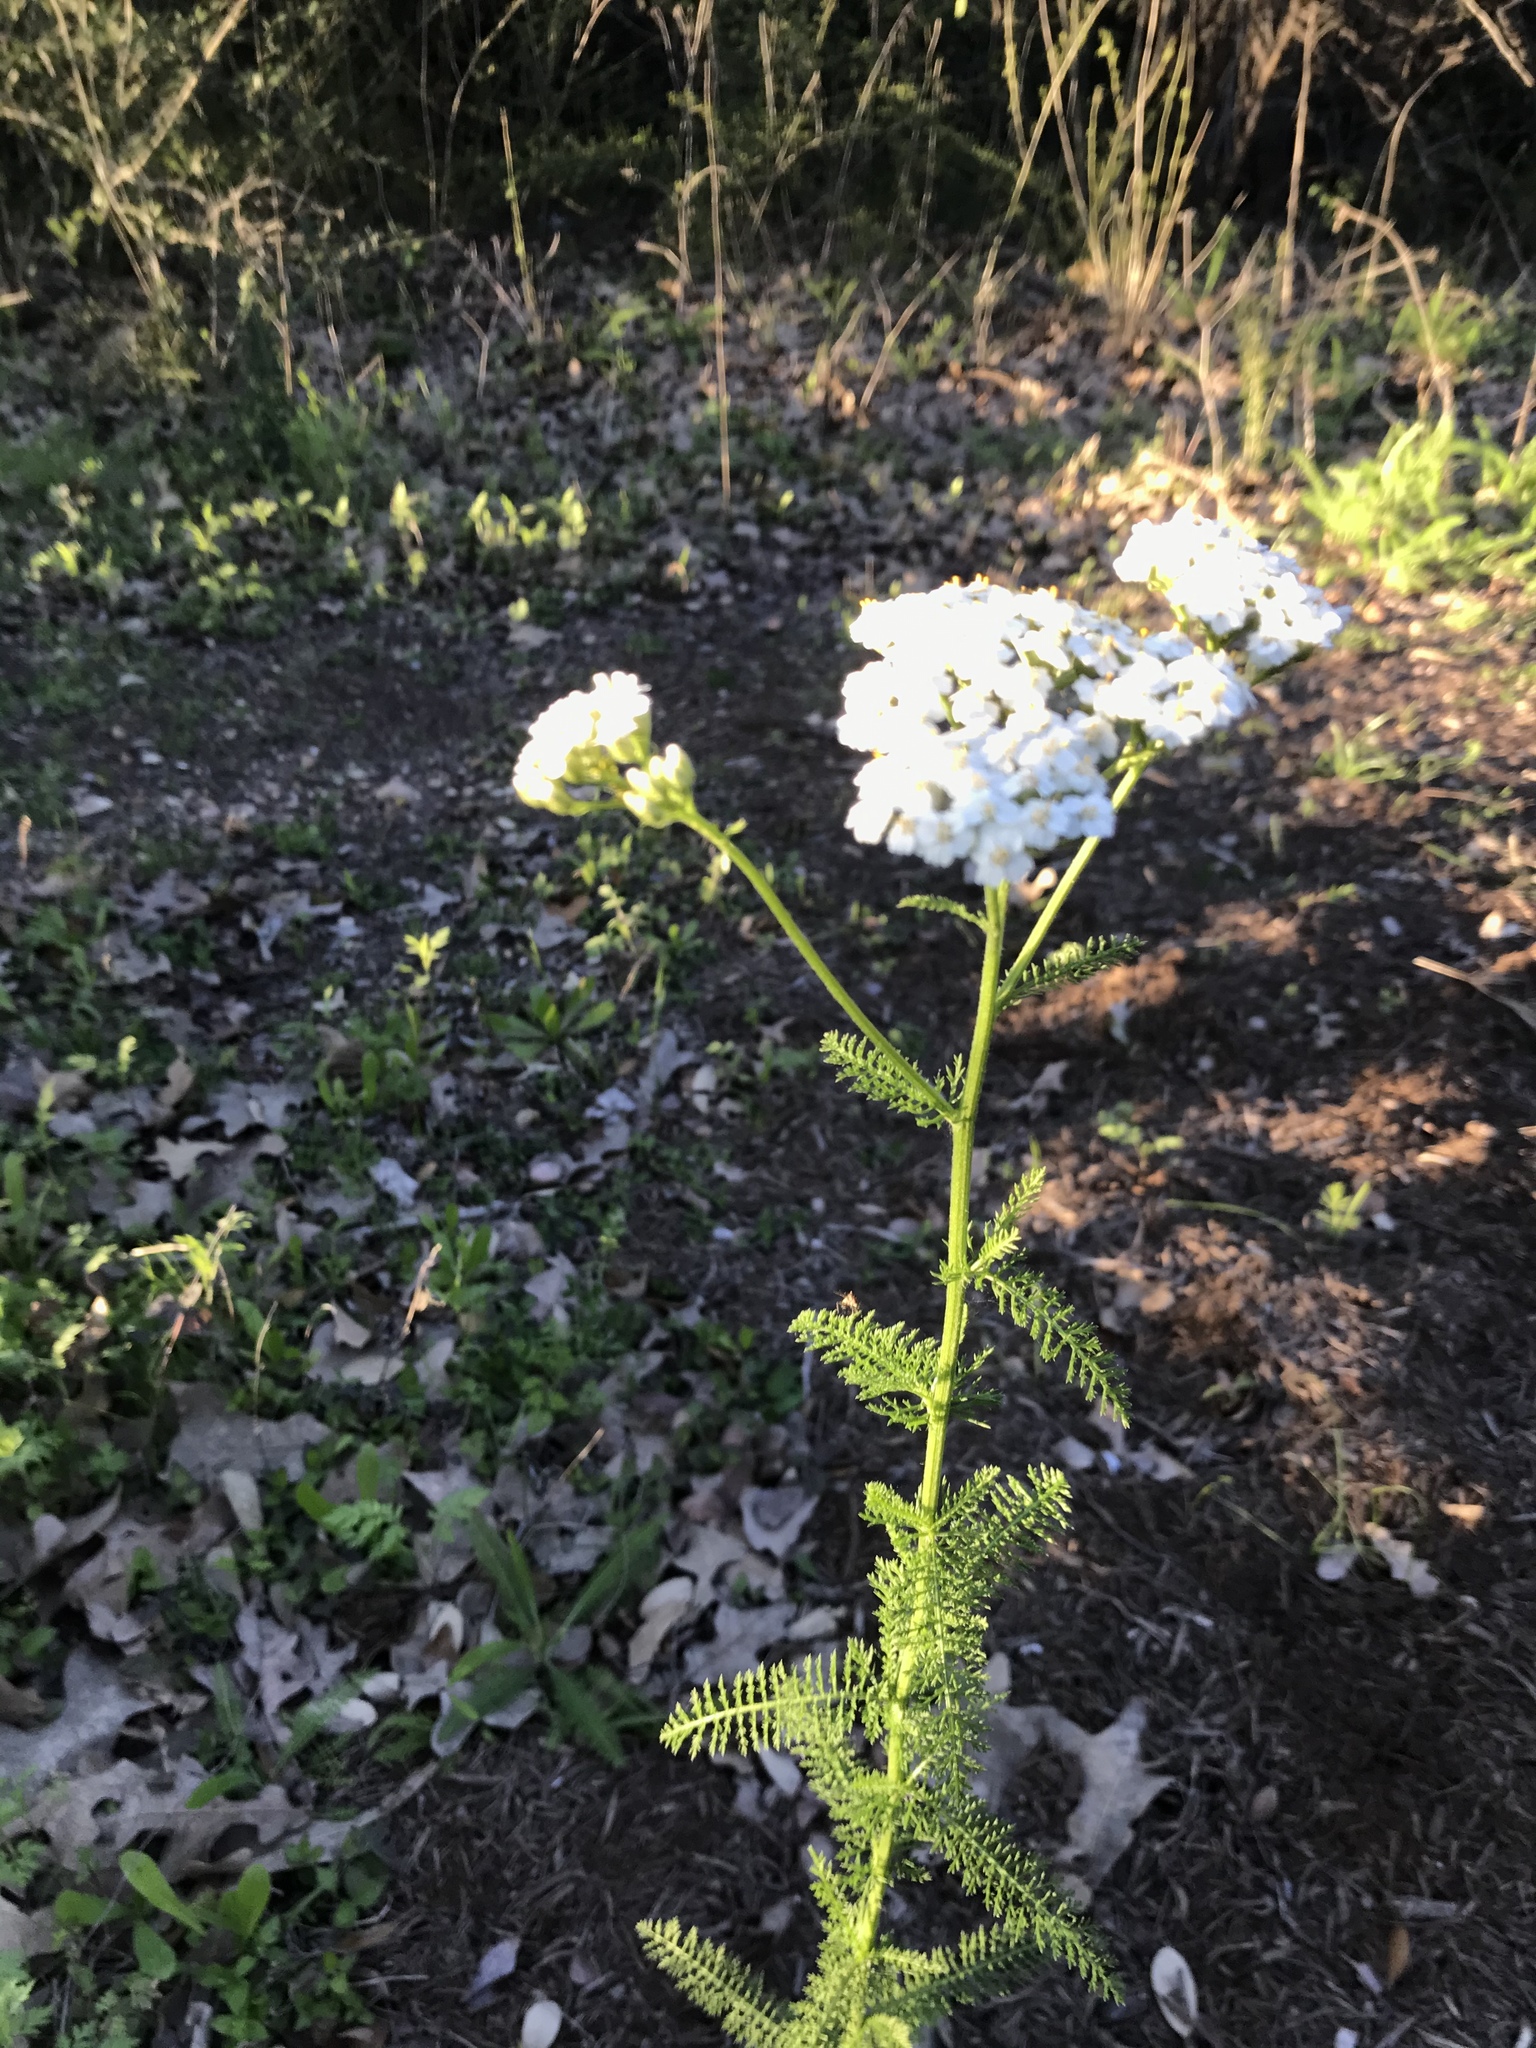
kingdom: Plantae
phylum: Tracheophyta
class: Magnoliopsida
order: Asterales
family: Asteraceae
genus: Achillea
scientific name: Achillea millefolium
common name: Yarrow
